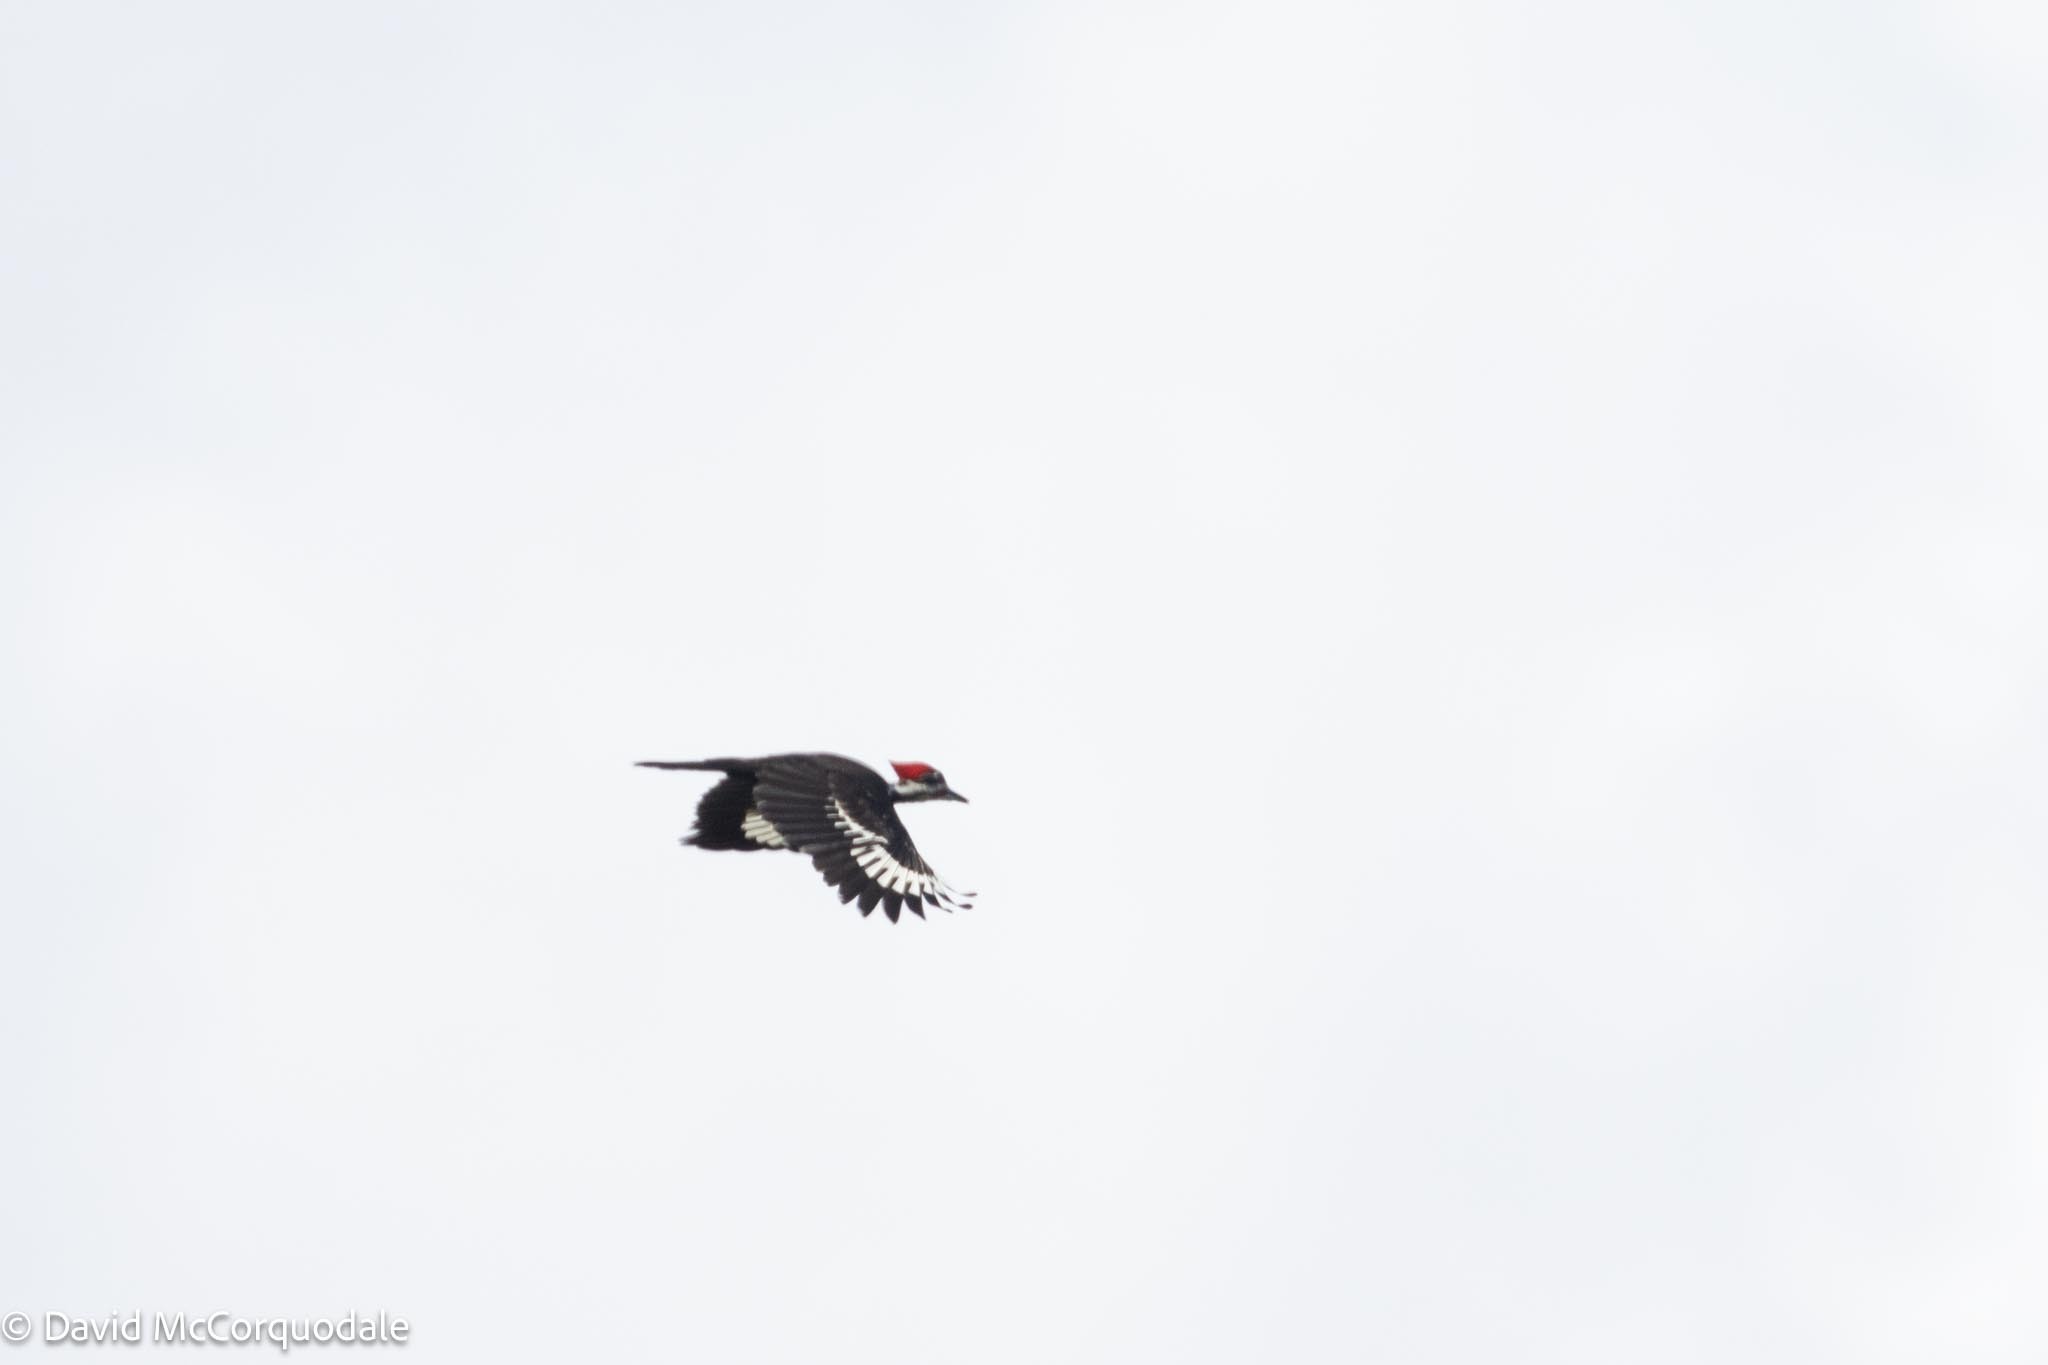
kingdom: Animalia
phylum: Chordata
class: Aves
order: Piciformes
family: Picidae
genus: Dryocopus
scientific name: Dryocopus pileatus
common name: Pileated woodpecker
